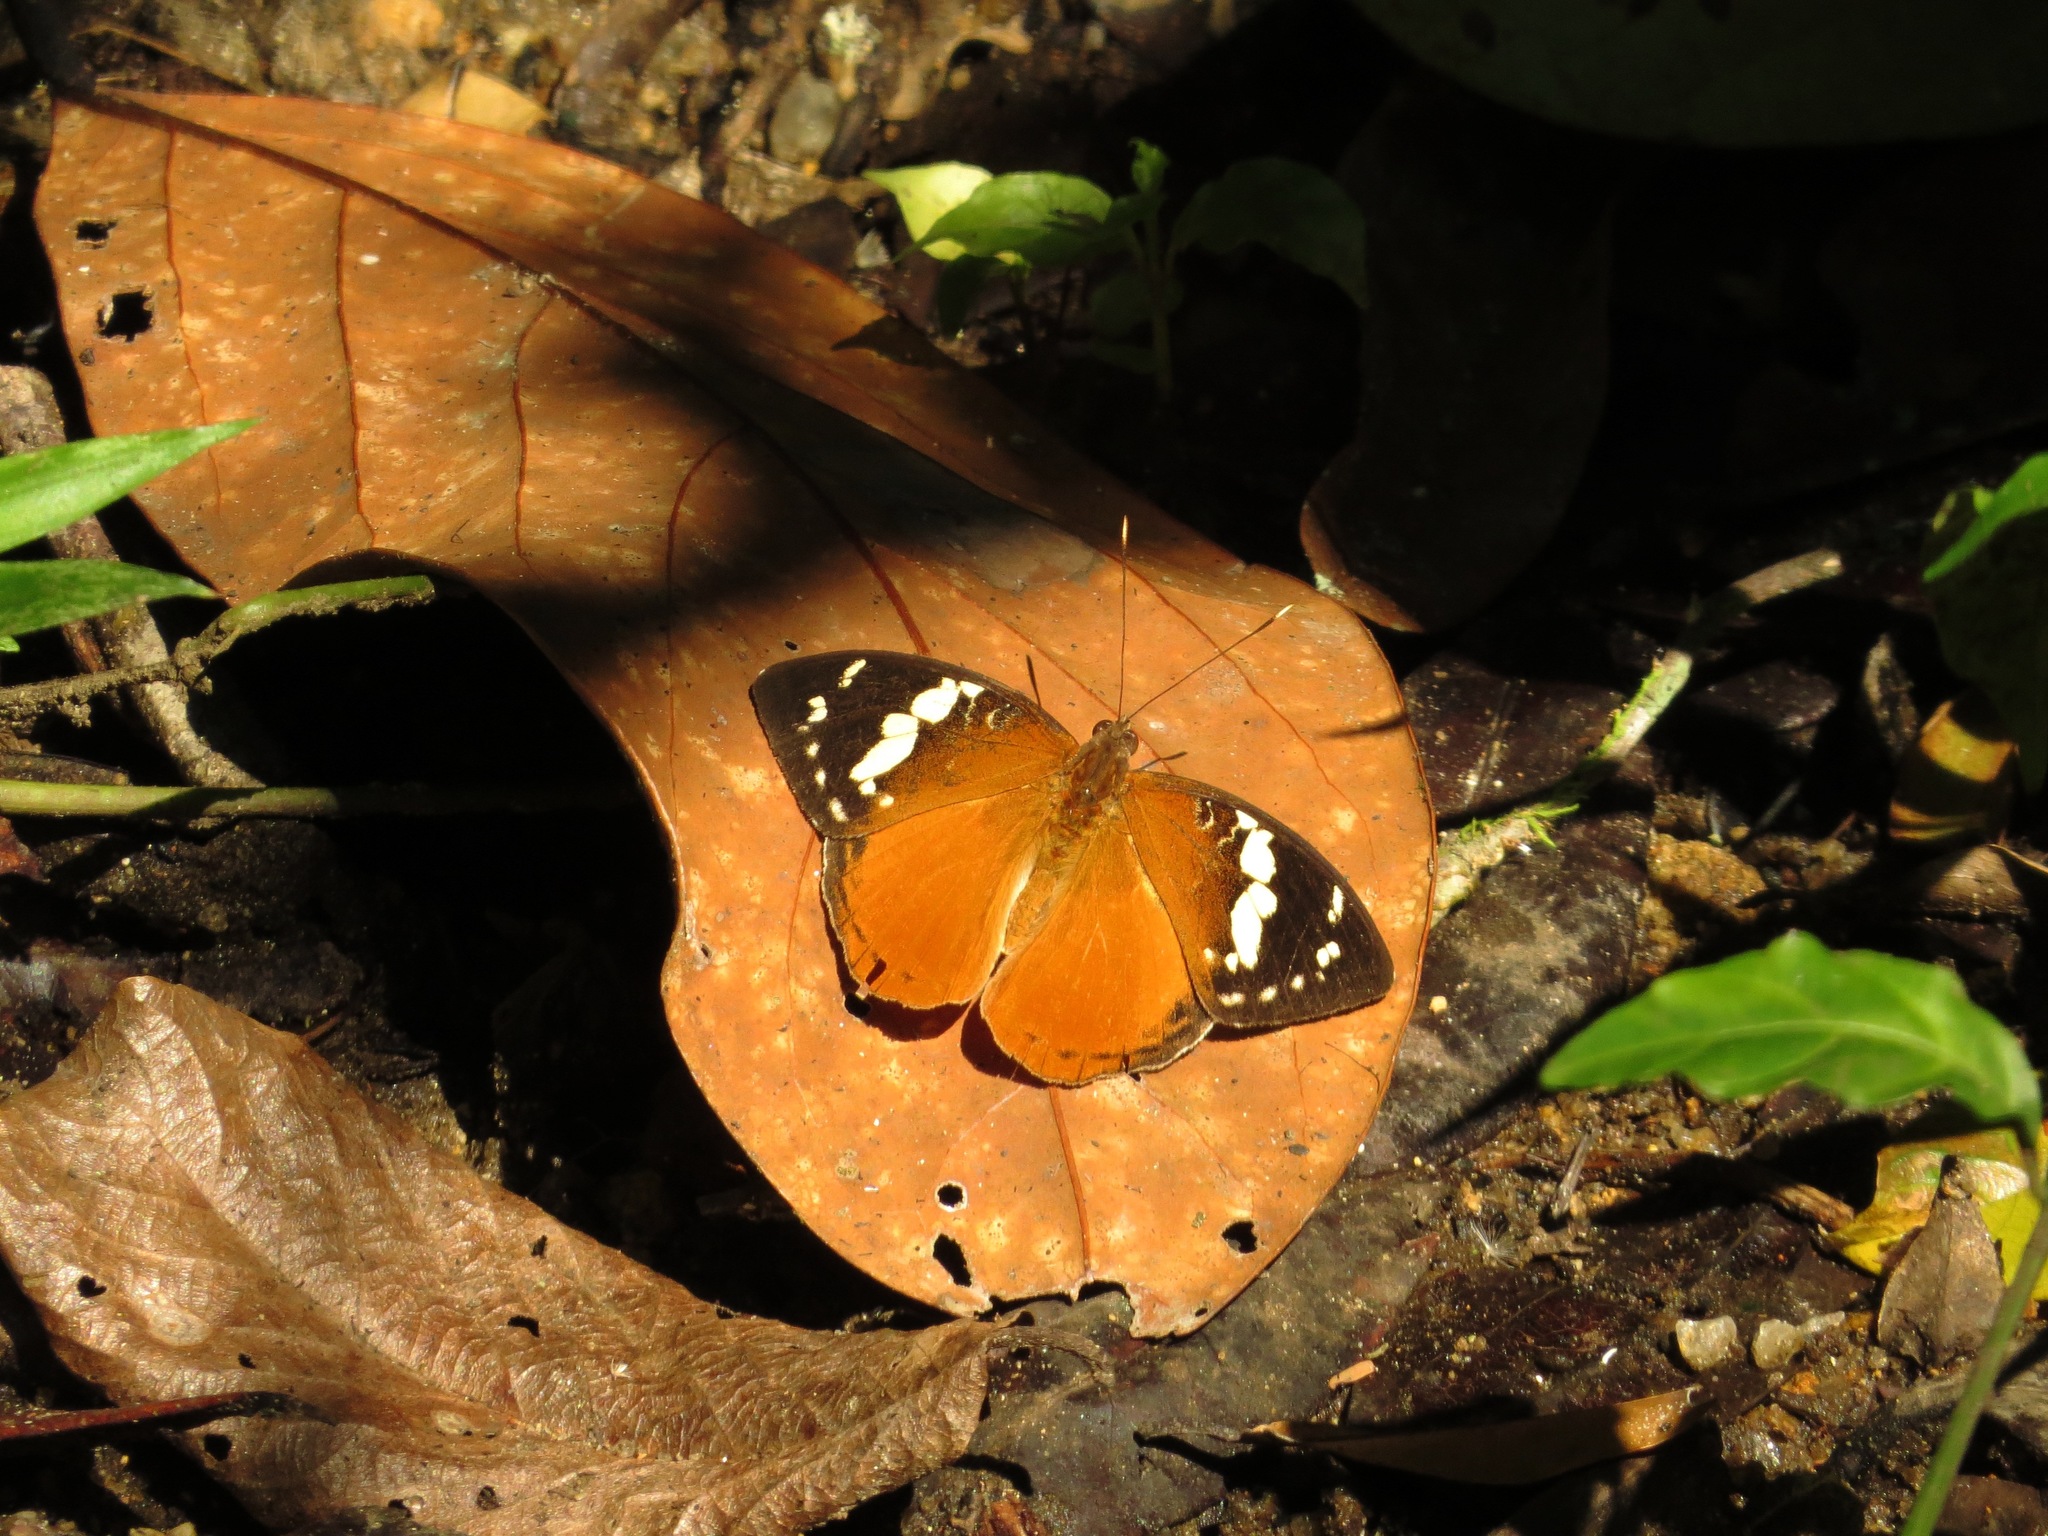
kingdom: Animalia
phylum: Arthropoda
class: Insecta
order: Lepidoptera
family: Nymphalidae
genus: Aterica
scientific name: Aterica rabena
